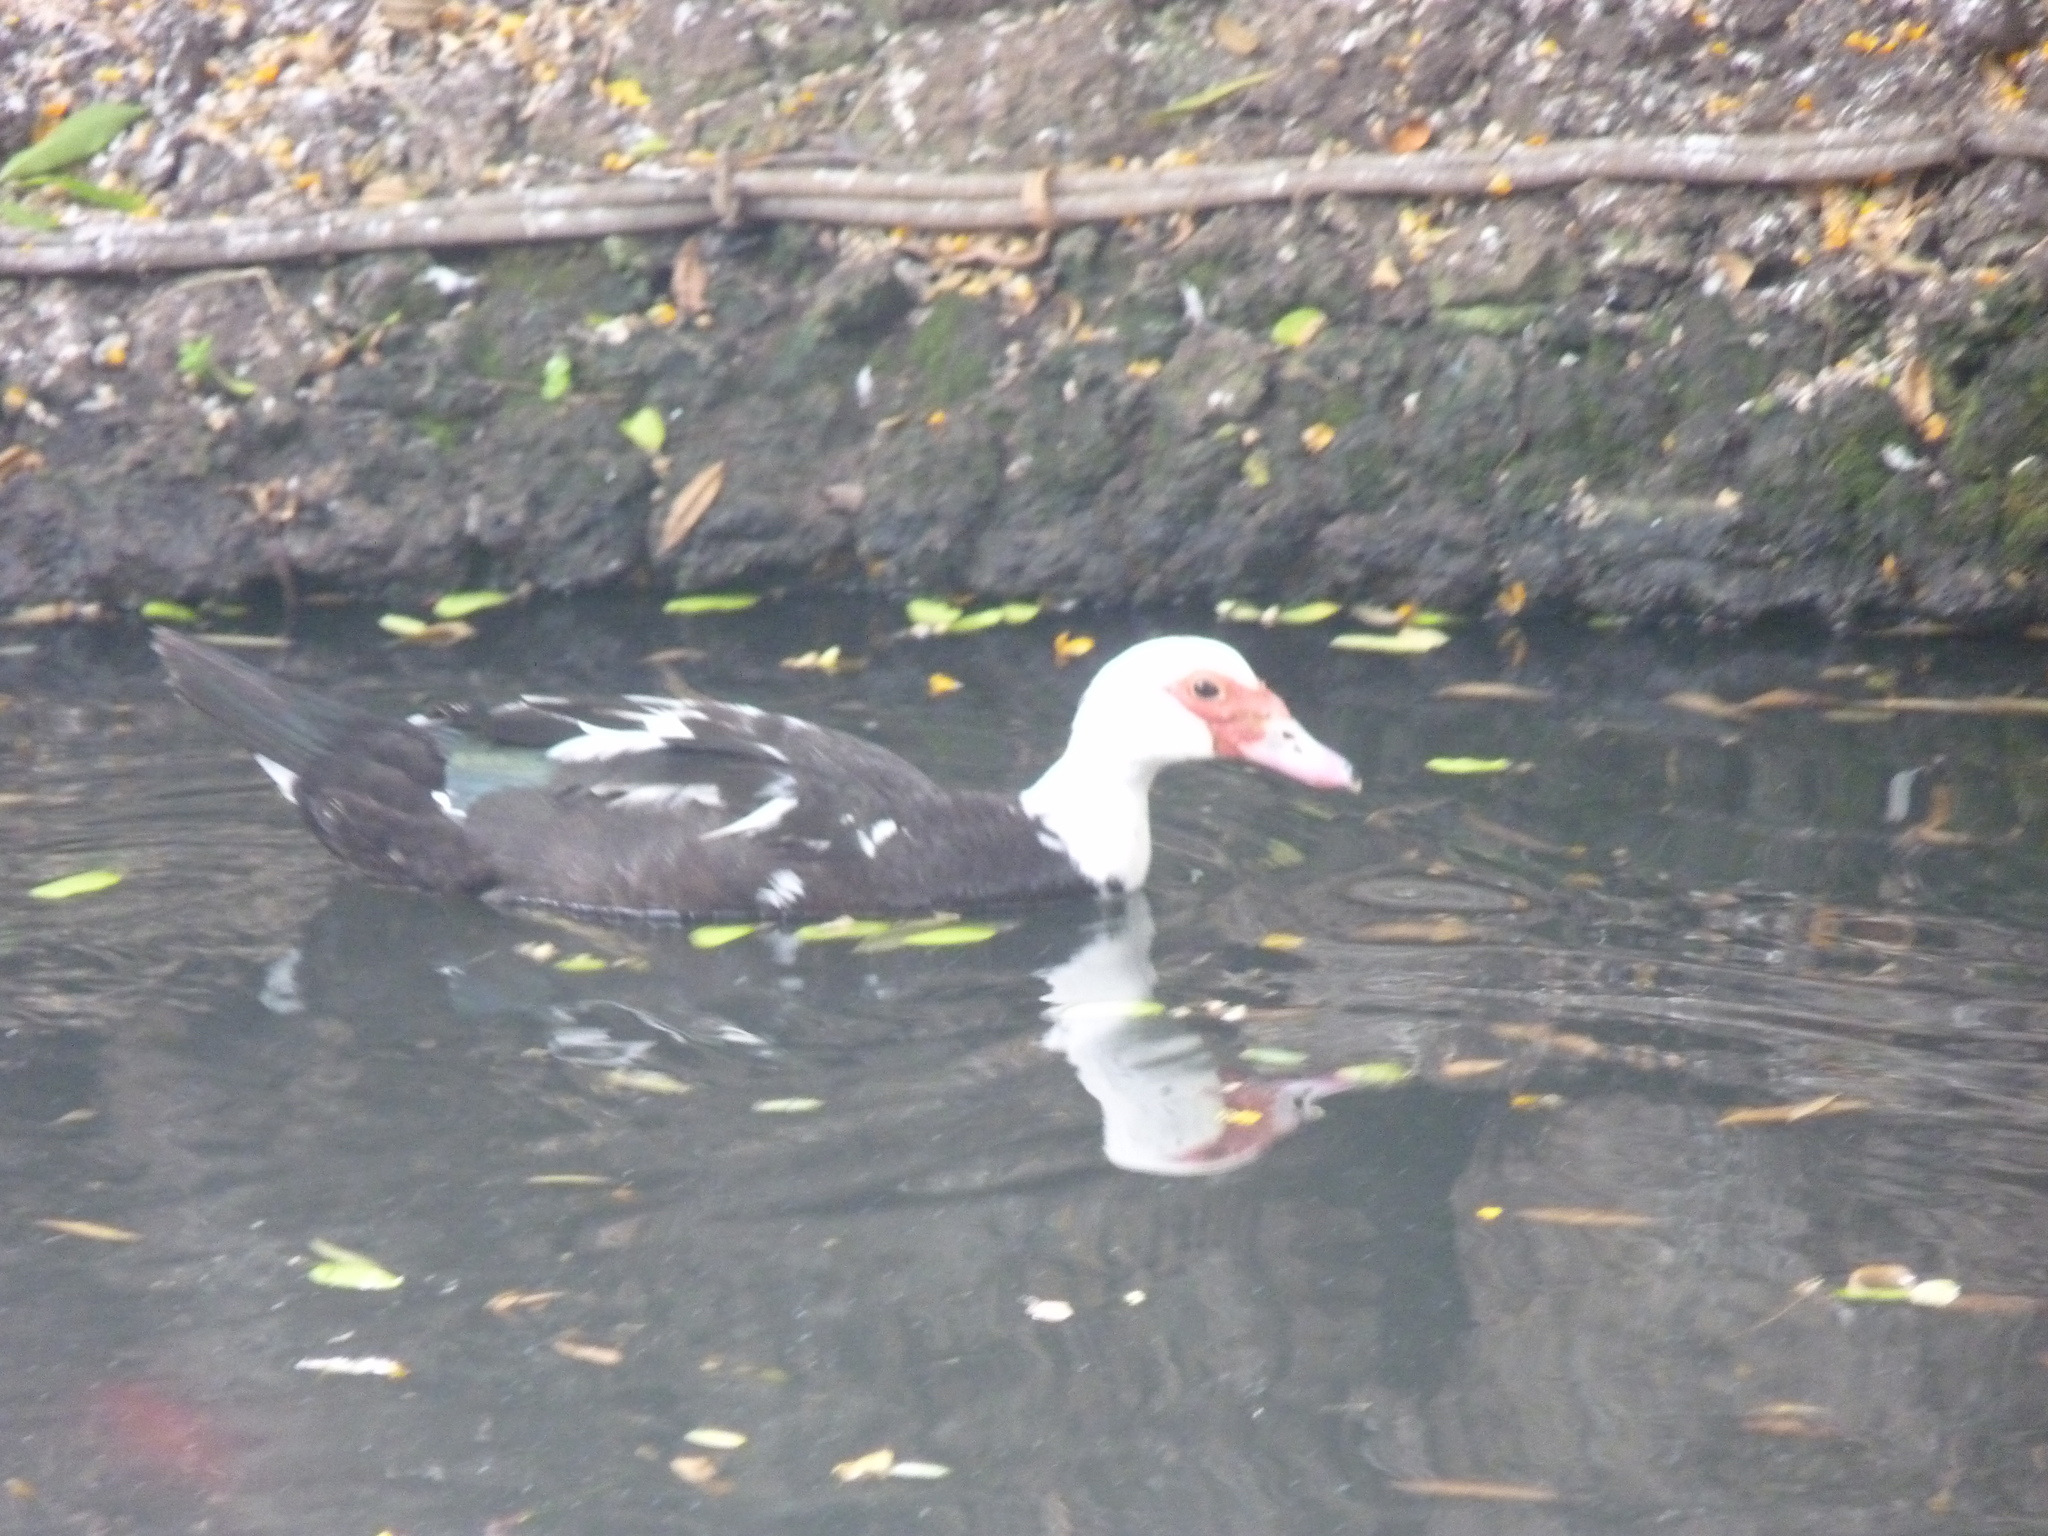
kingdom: Animalia
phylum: Chordata
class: Aves
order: Anseriformes
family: Anatidae
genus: Cairina
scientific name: Cairina moschata
